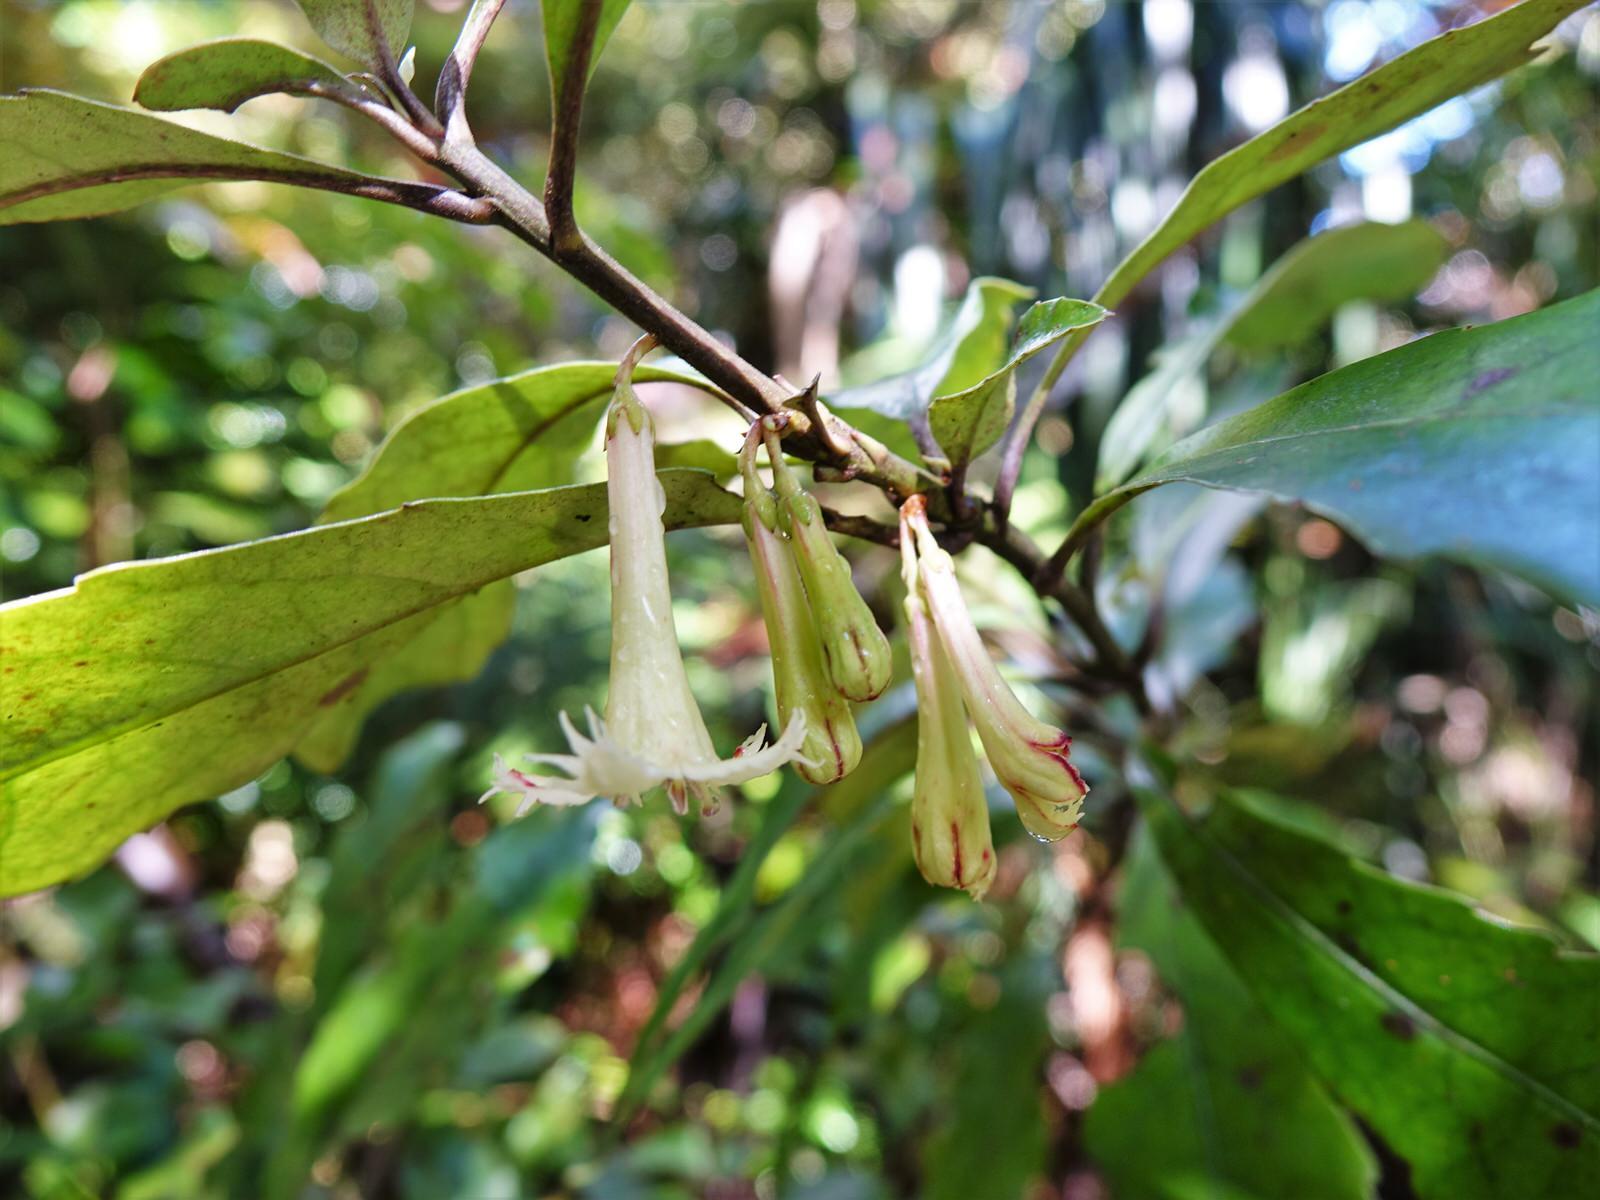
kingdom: Plantae
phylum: Tracheophyta
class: Magnoliopsida
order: Asterales
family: Alseuosmiaceae
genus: Alseuosmia
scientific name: Alseuosmia macrophylla
